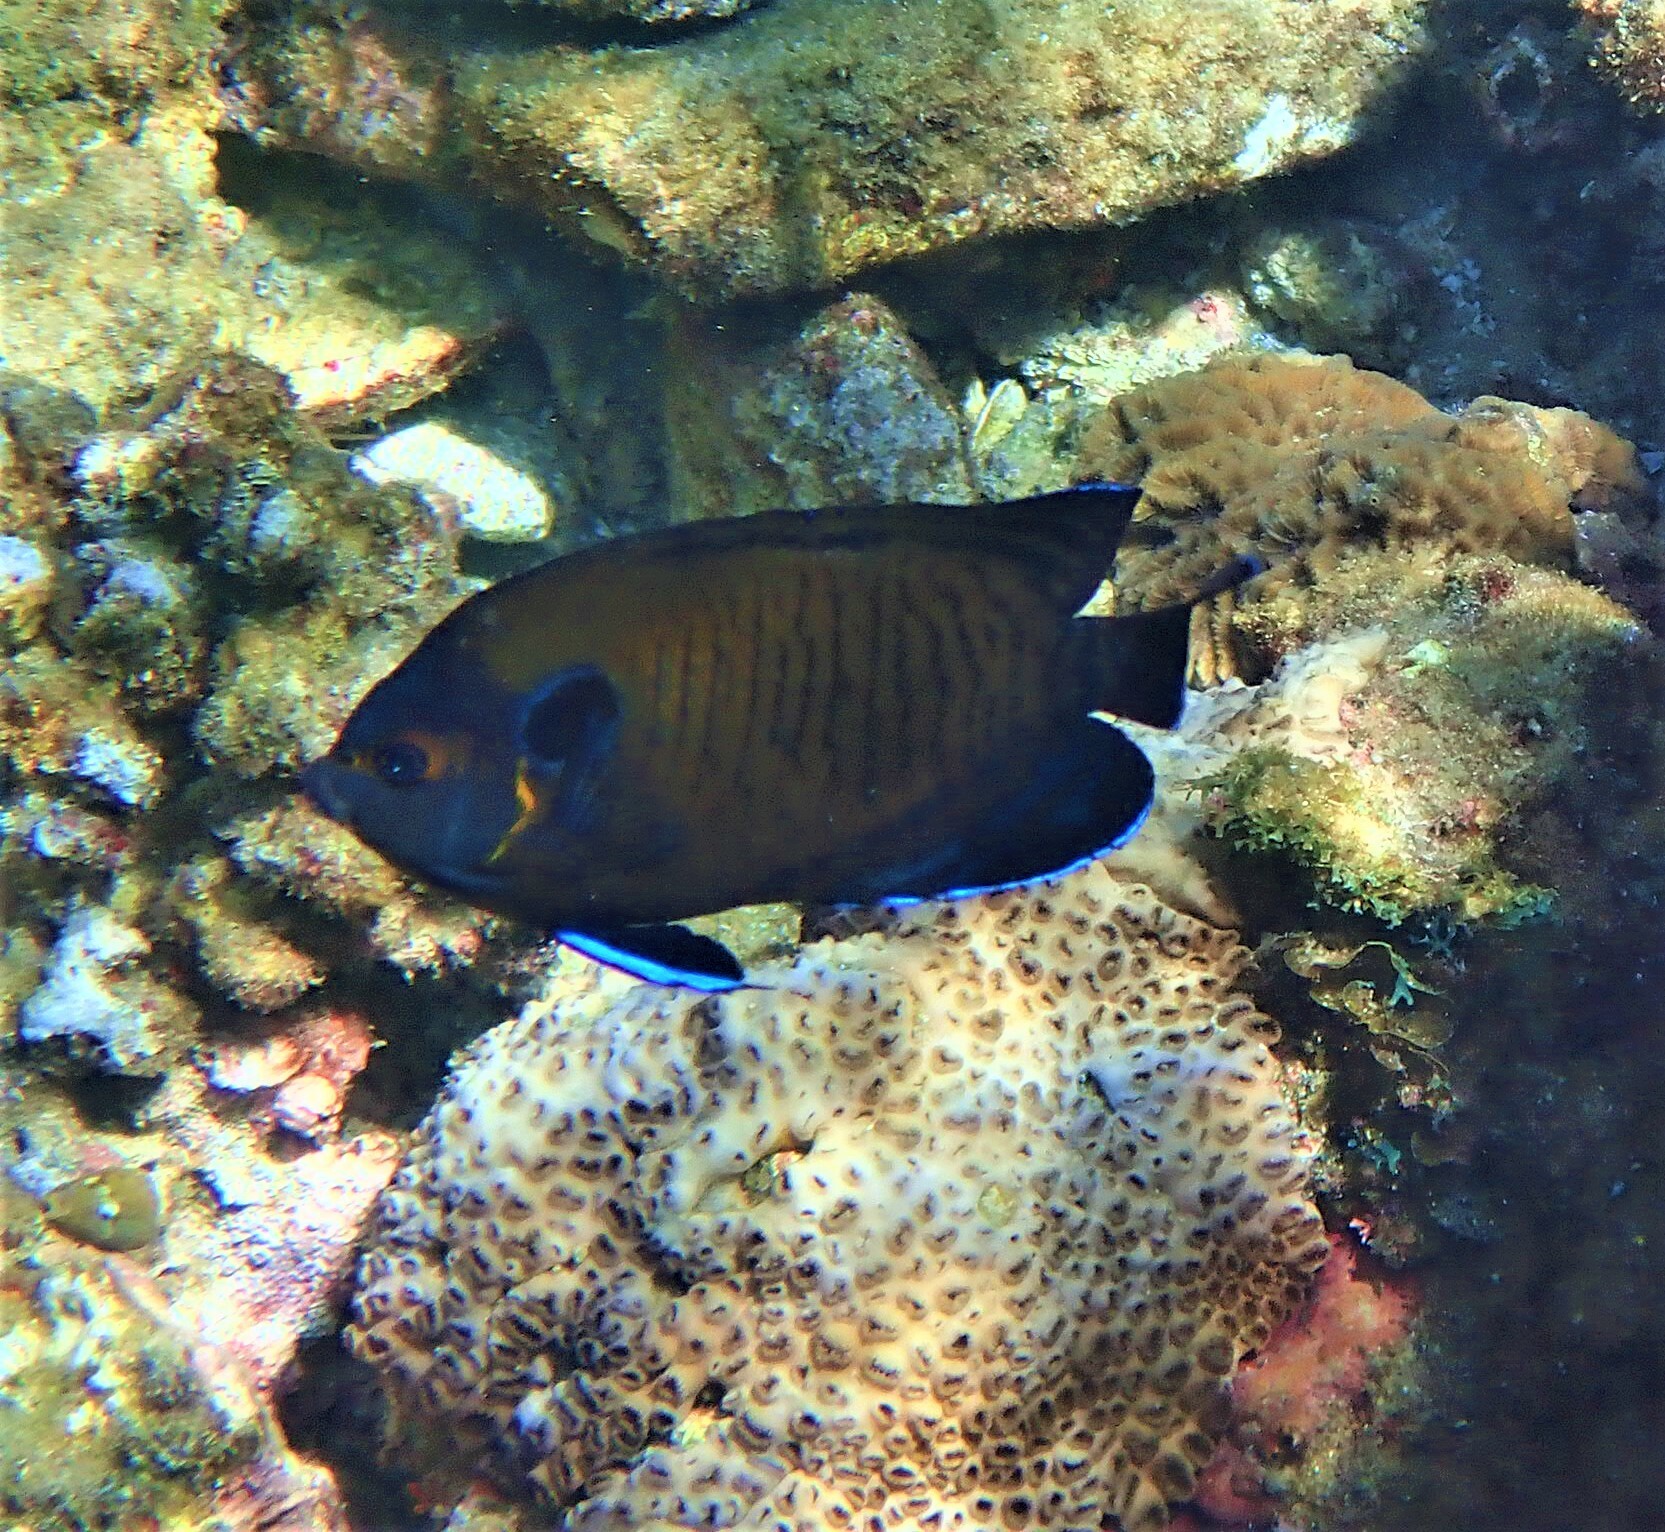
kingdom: Animalia
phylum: Chordata
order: Perciformes
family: Pomacanthidae
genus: Centropyge
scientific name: Centropyge multispinis
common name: Many-spined angelfish
